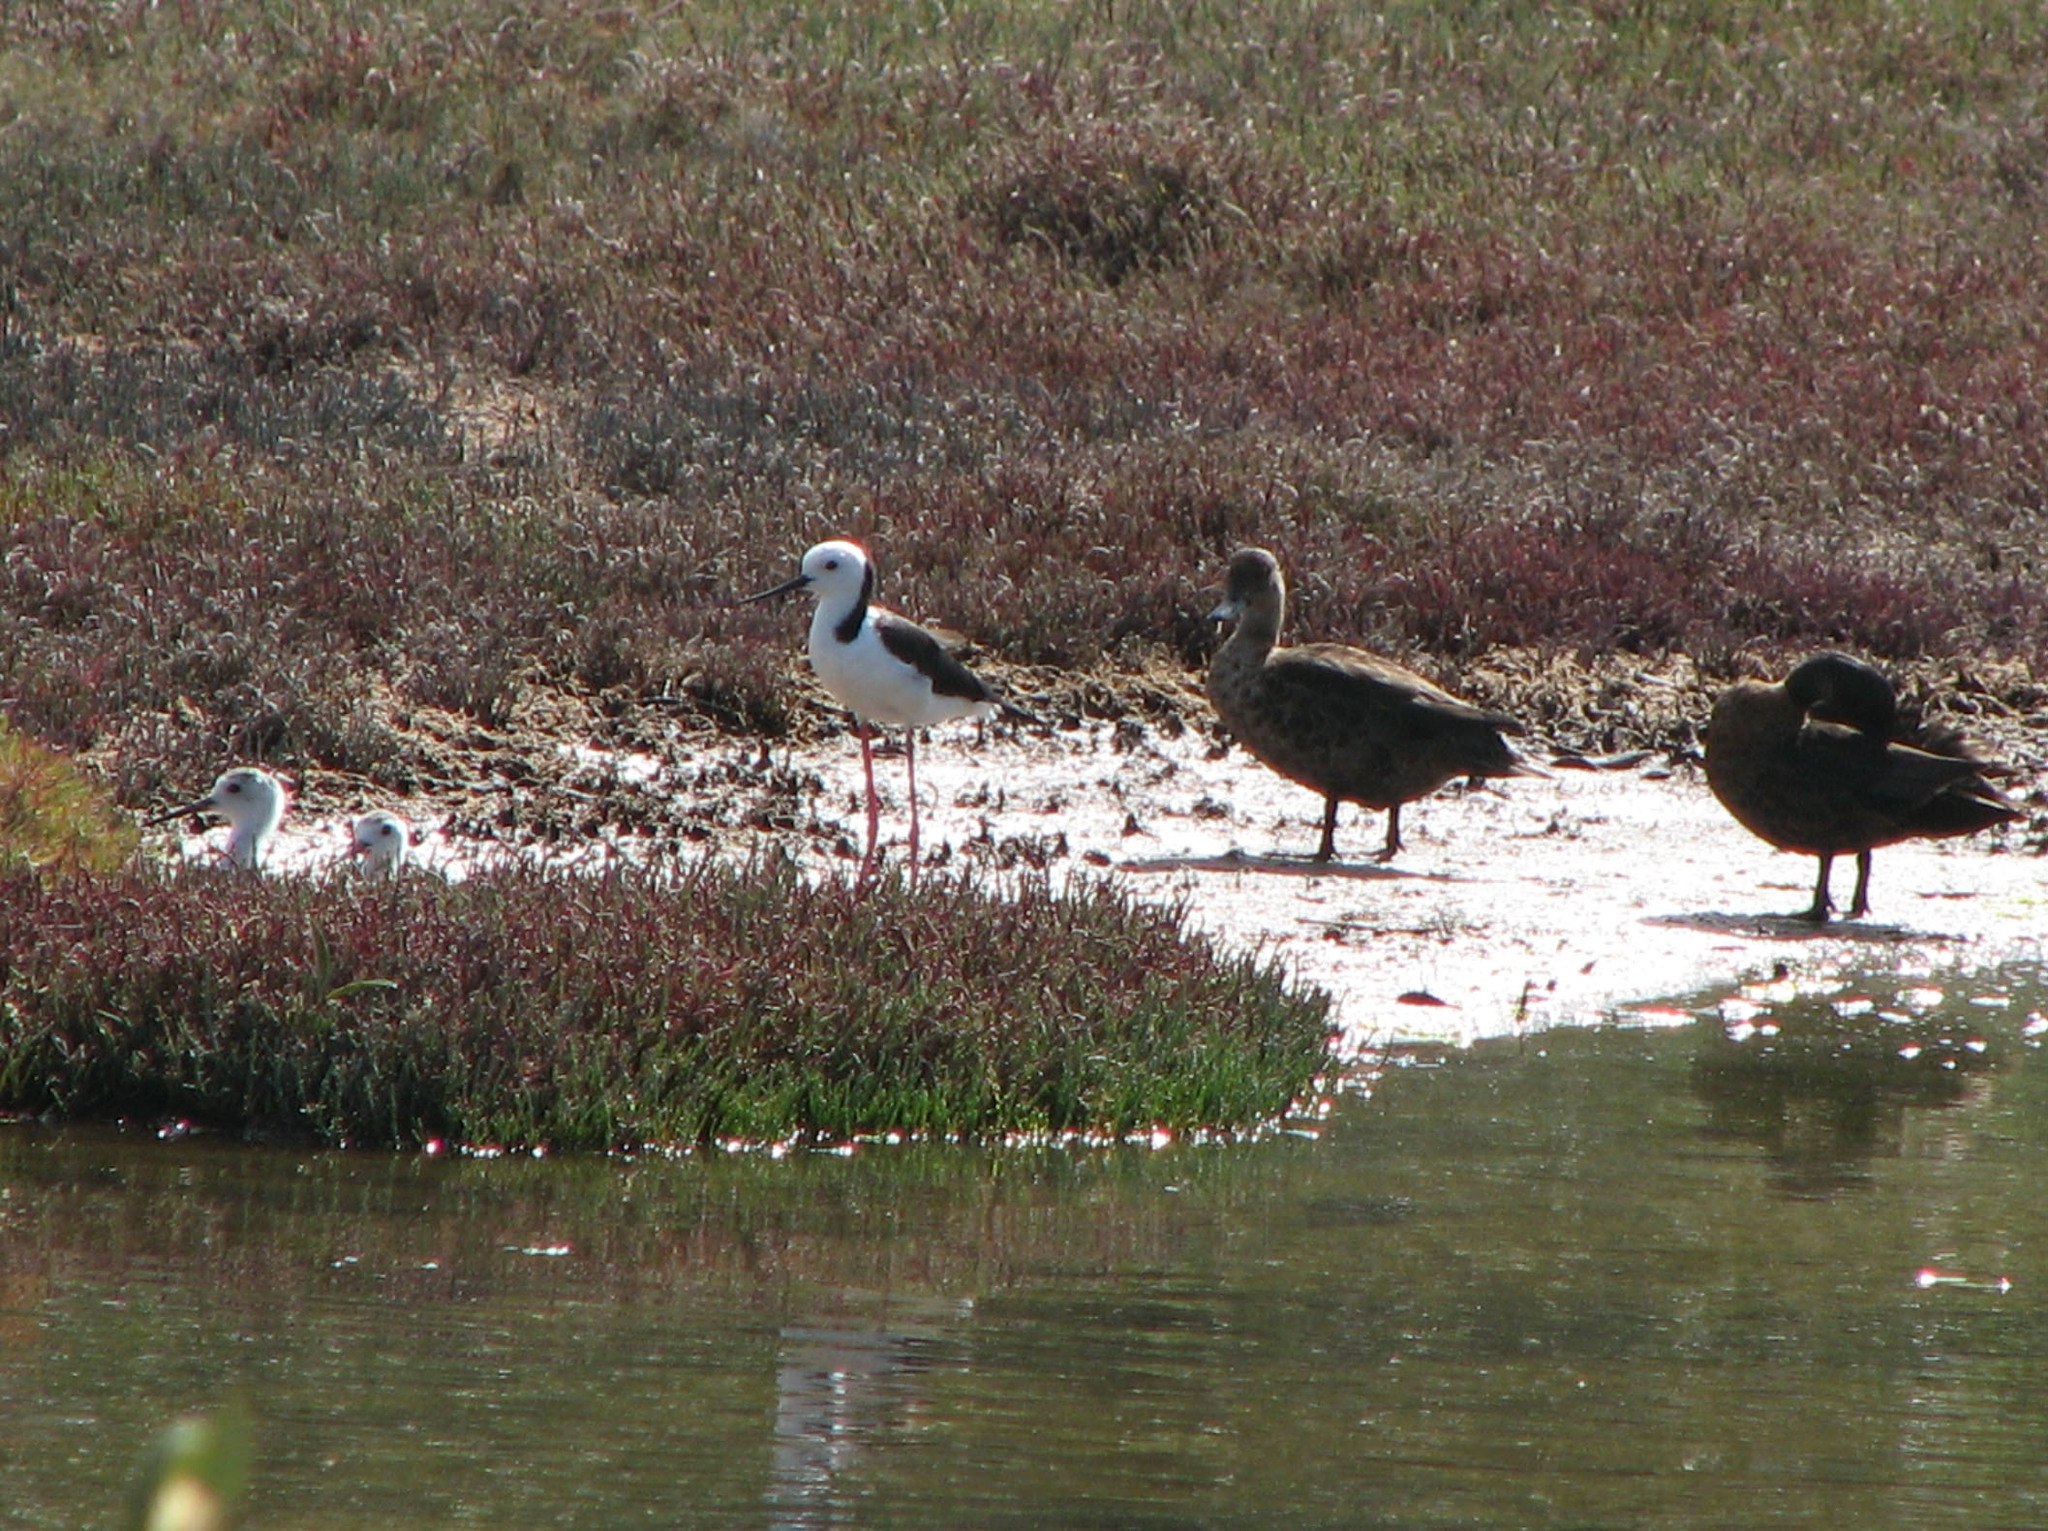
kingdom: Animalia
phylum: Chordata
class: Aves
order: Anseriformes
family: Anatidae
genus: Anas
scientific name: Anas castanea
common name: Chestnut teal
